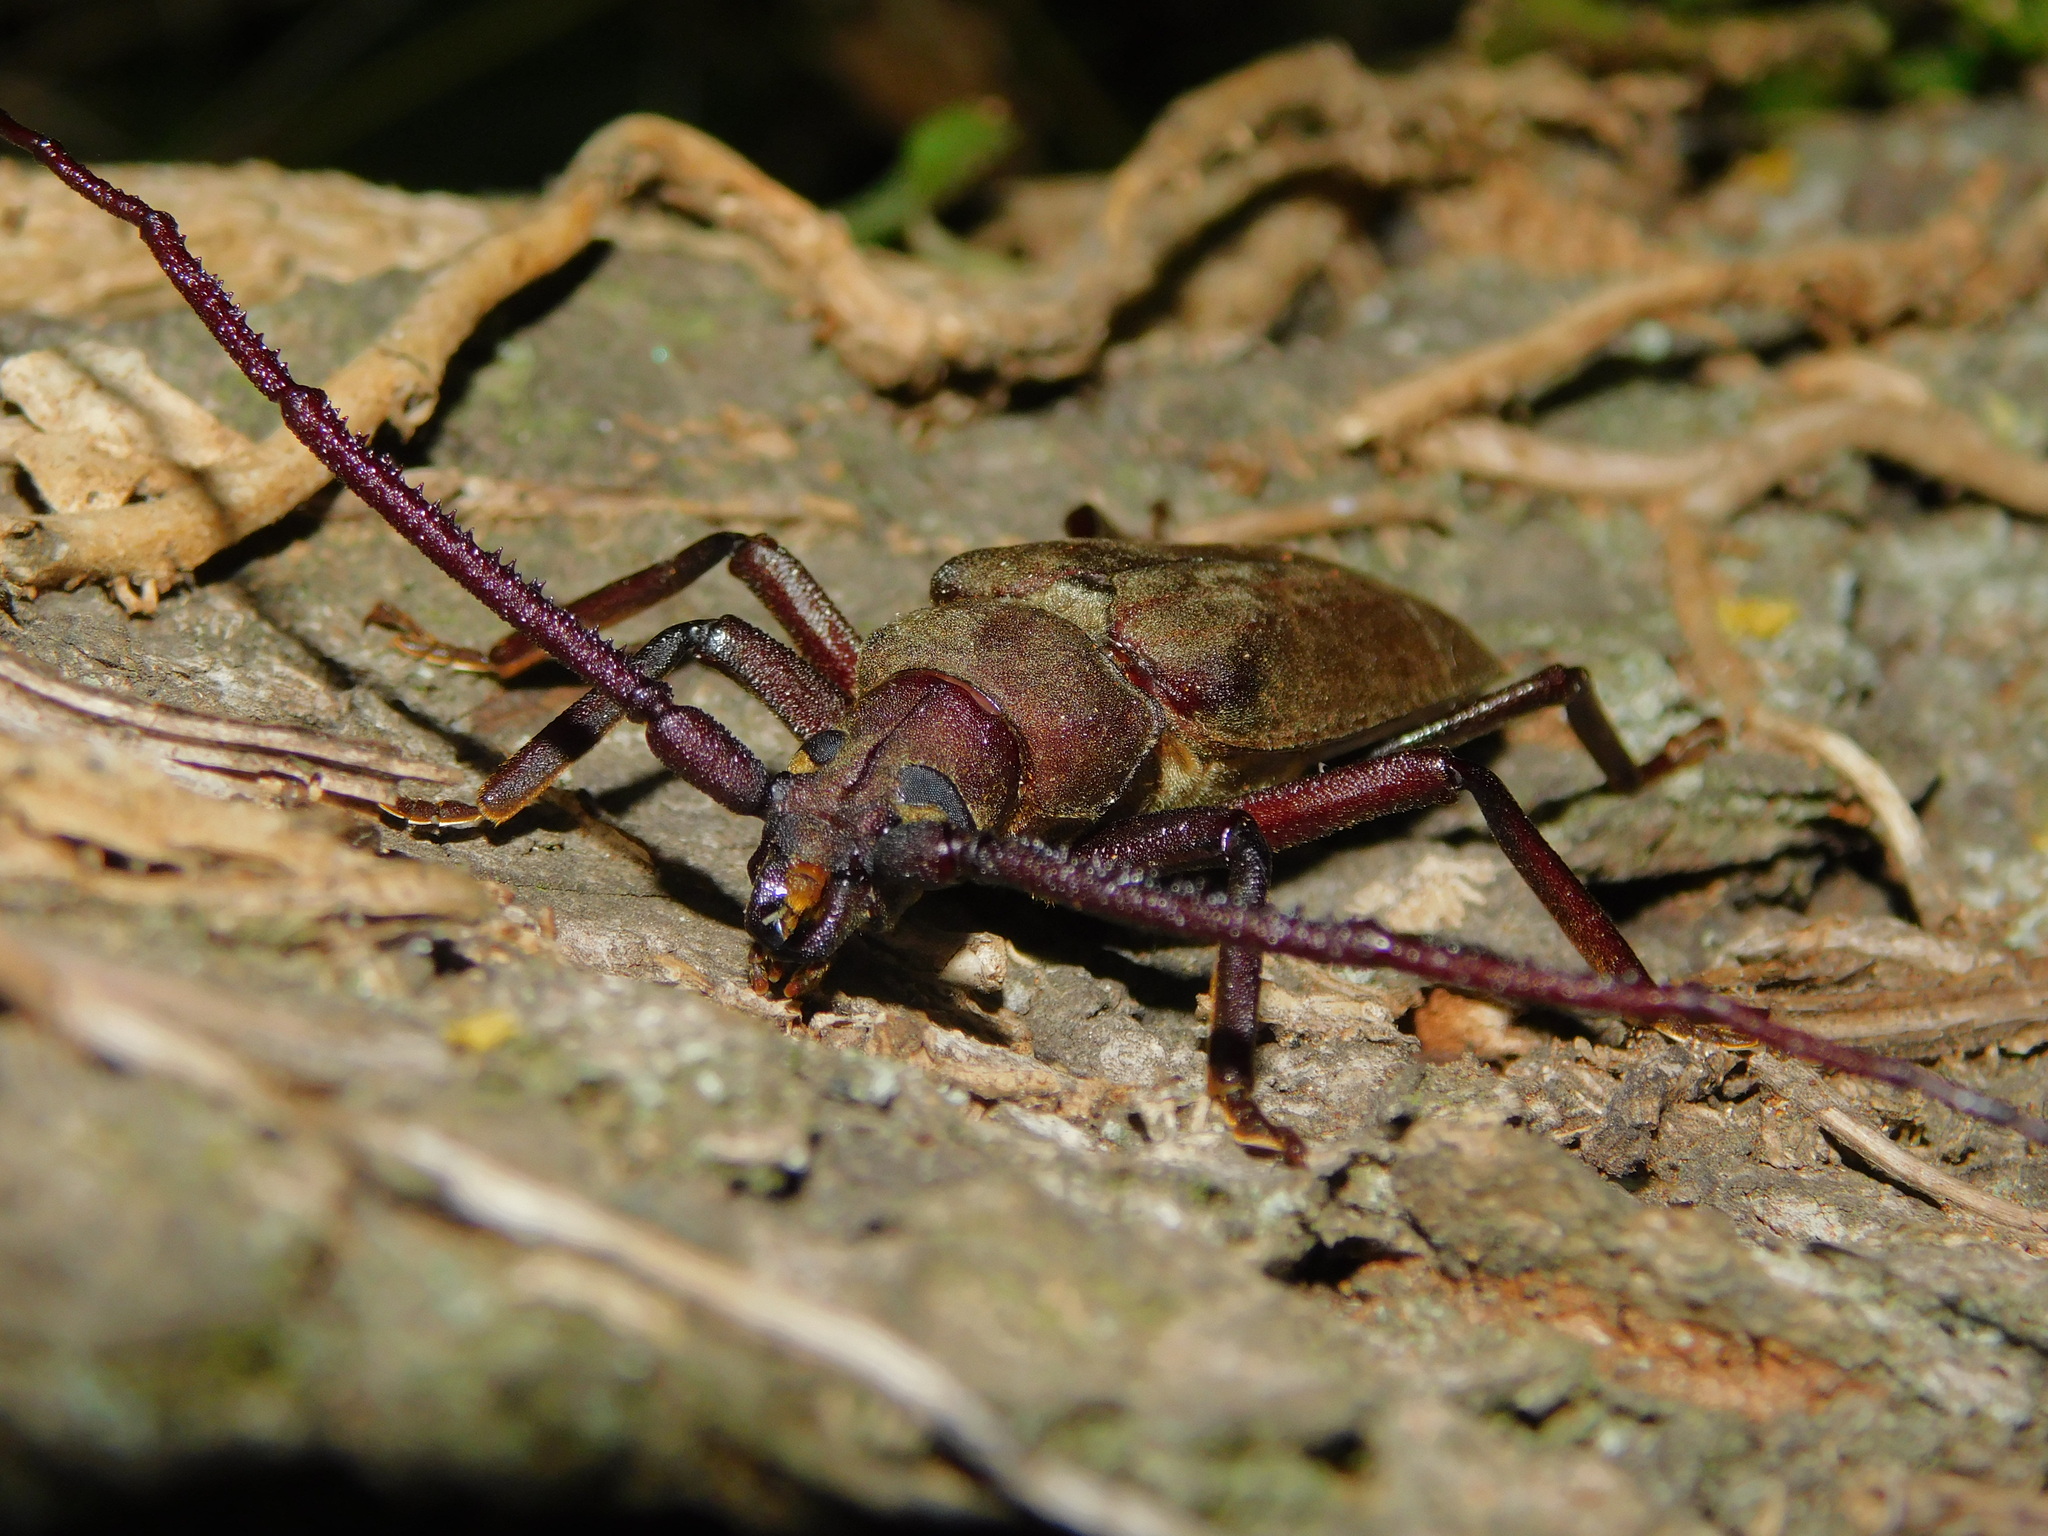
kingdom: Animalia
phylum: Arthropoda
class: Insecta
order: Coleoptera
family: Cerambycidae
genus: Aegosoma
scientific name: Aegosoma scabricorne
